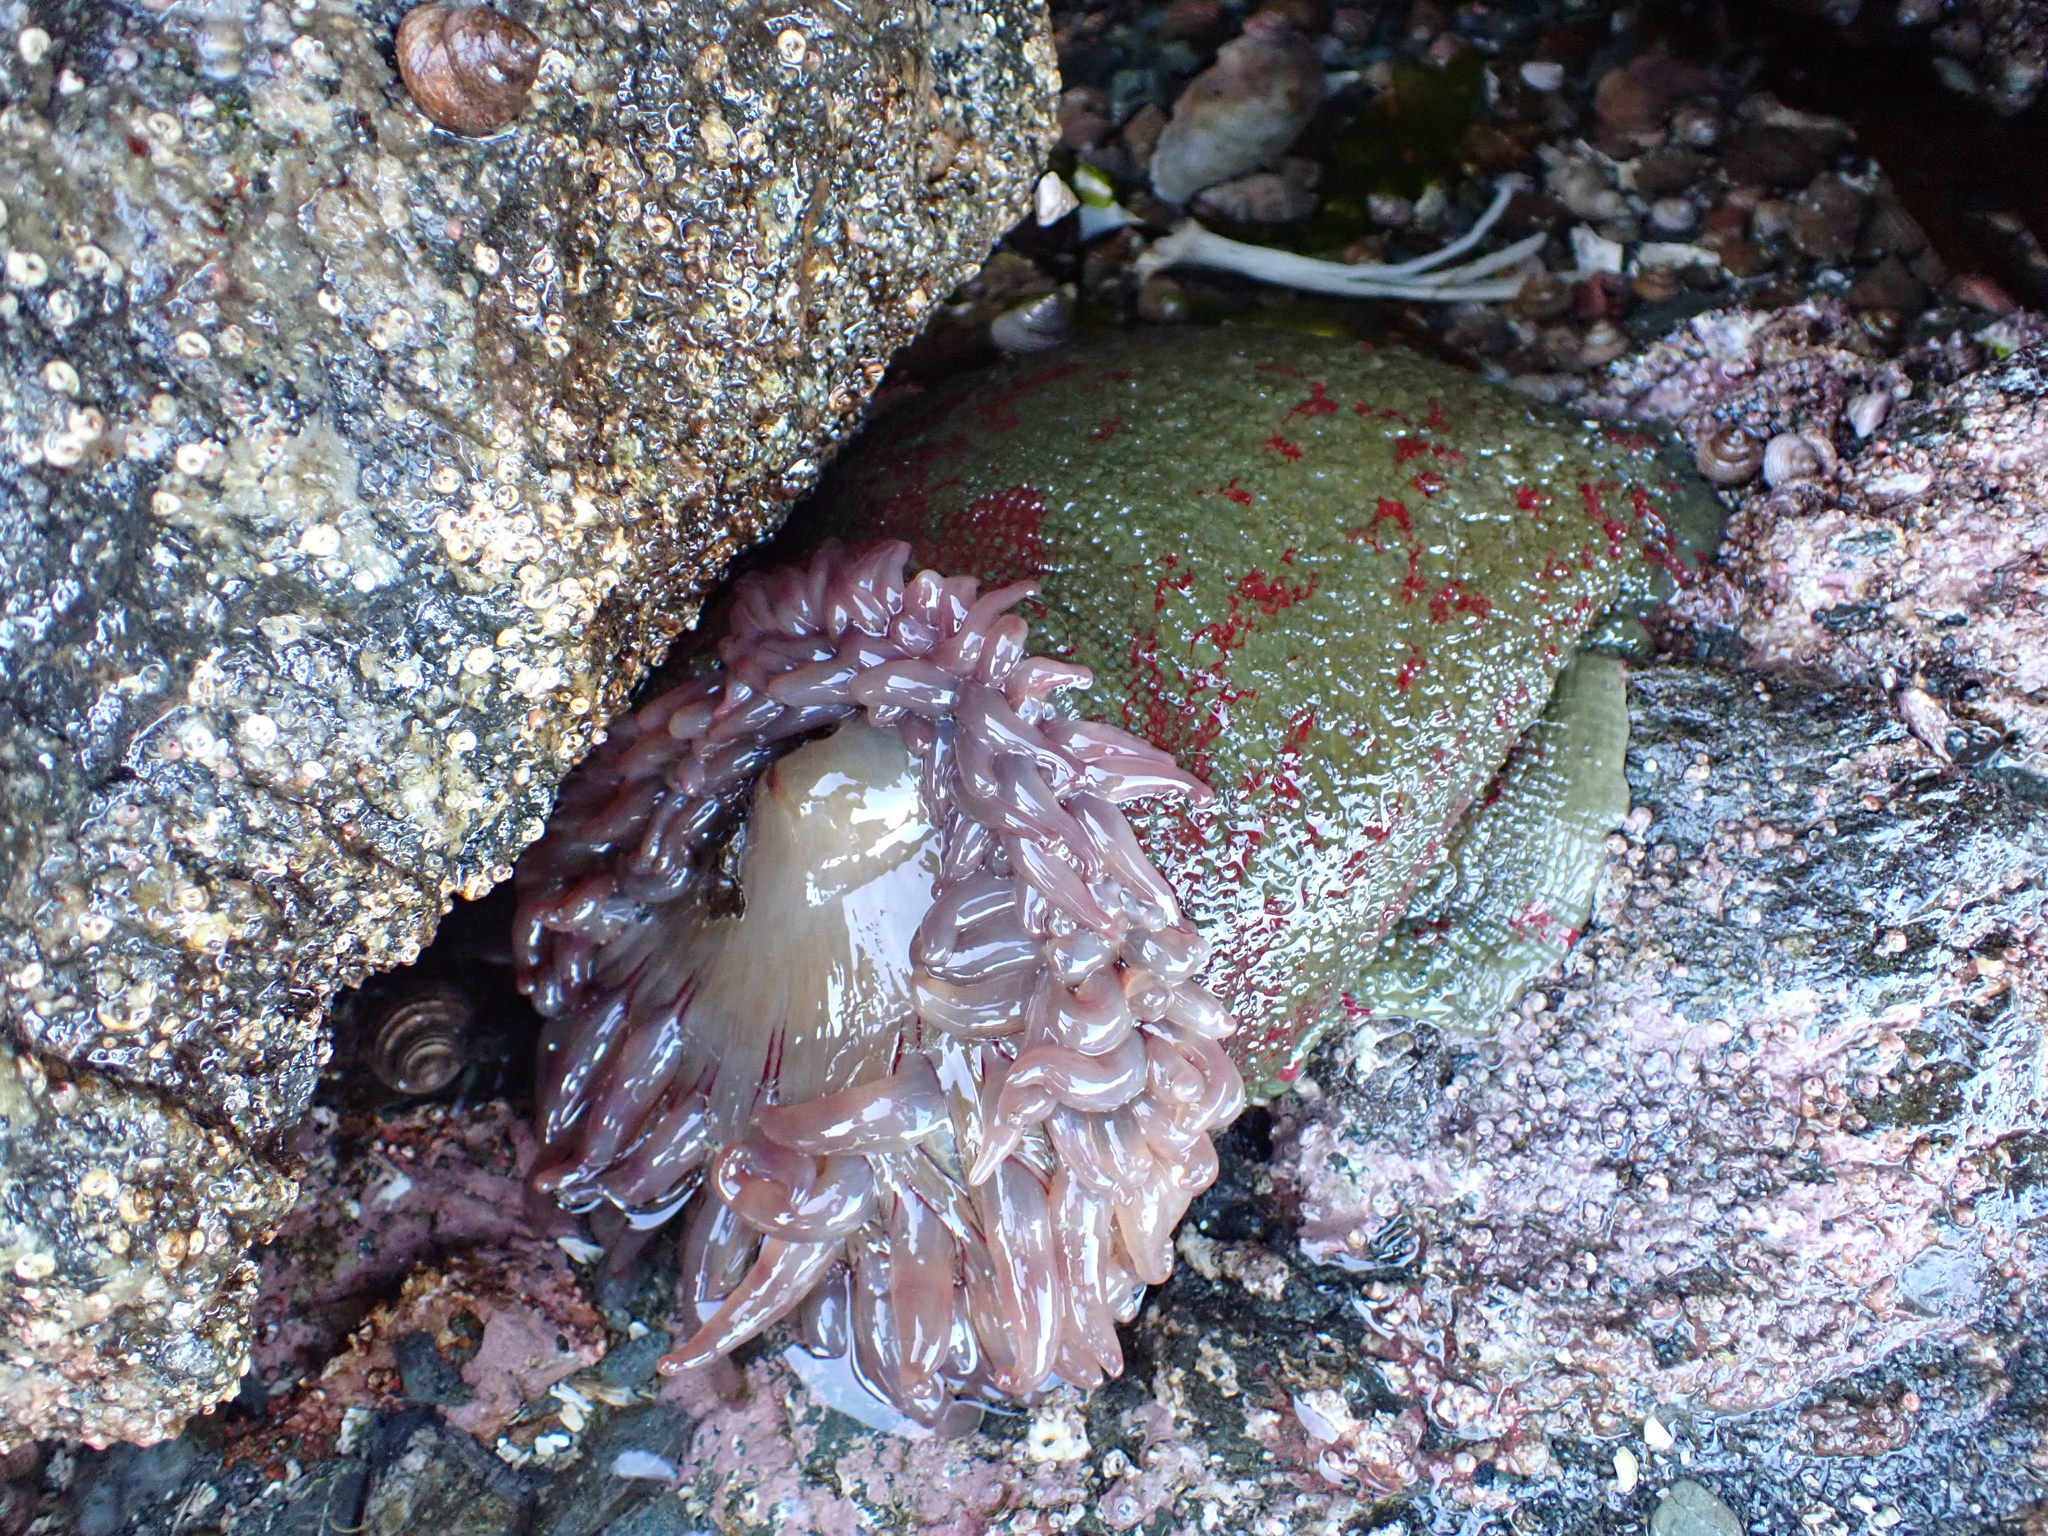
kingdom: Animalia
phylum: Cnidaria
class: Anthozoa
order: Actiniaria
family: Actiniidae
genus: Urticina
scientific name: Urticina grebelnyi
